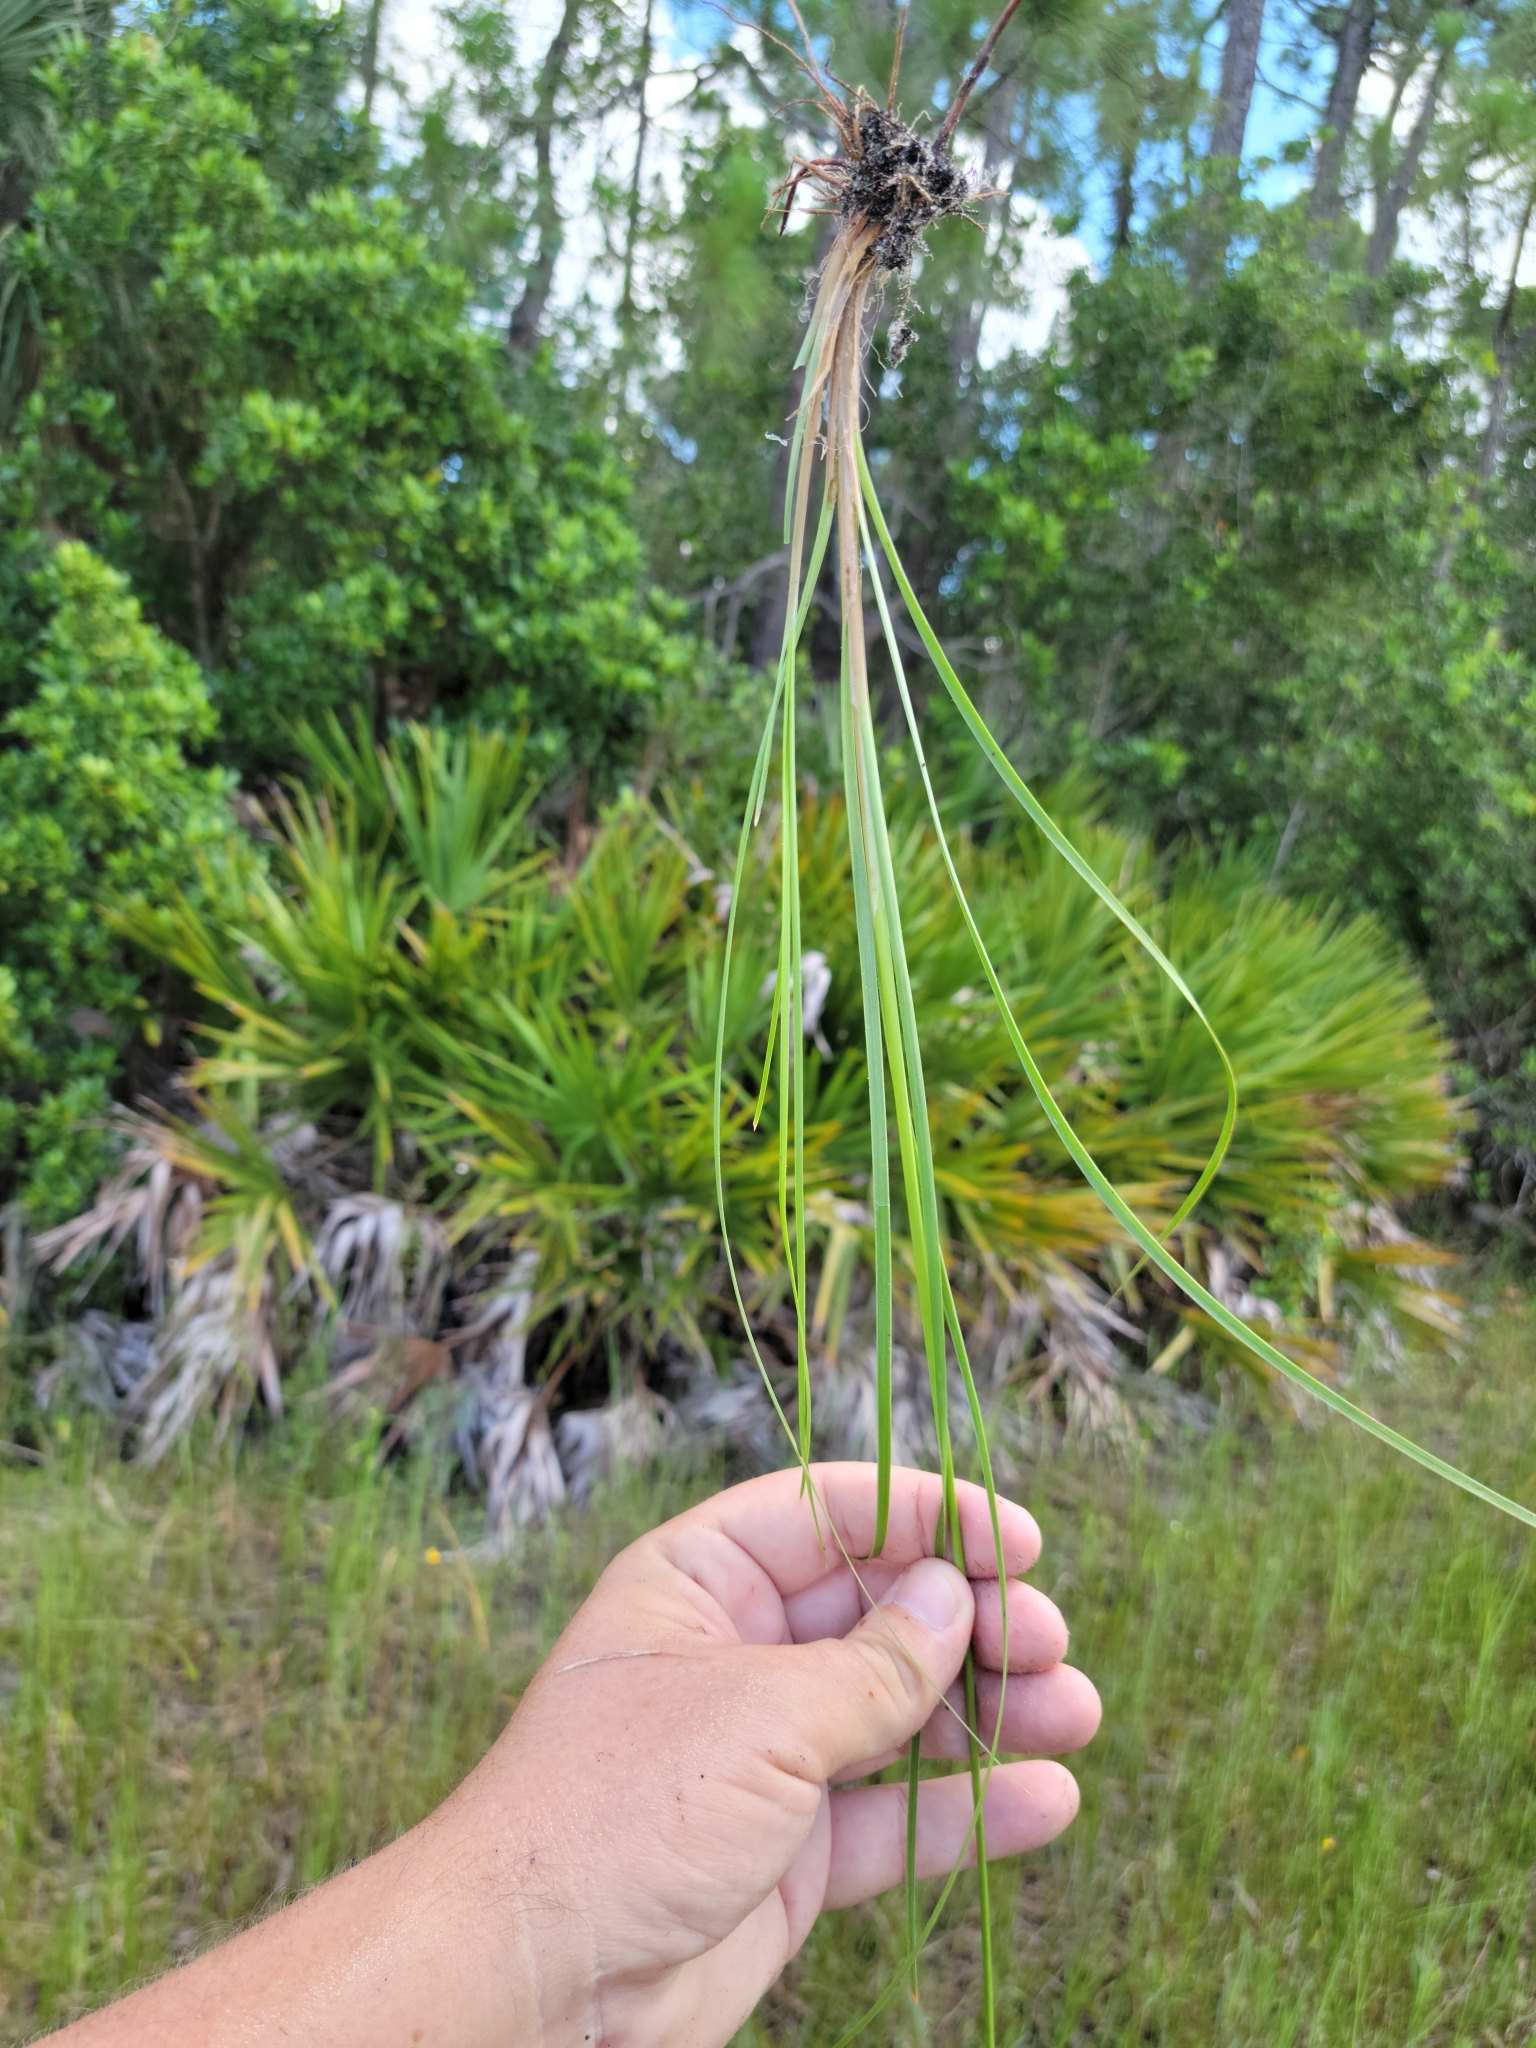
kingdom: Plantae
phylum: Tracheophyta
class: Liliopsida
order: Poales
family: Cyperaceae
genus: Fimbristylis
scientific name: Fimbristylis caroliniana
